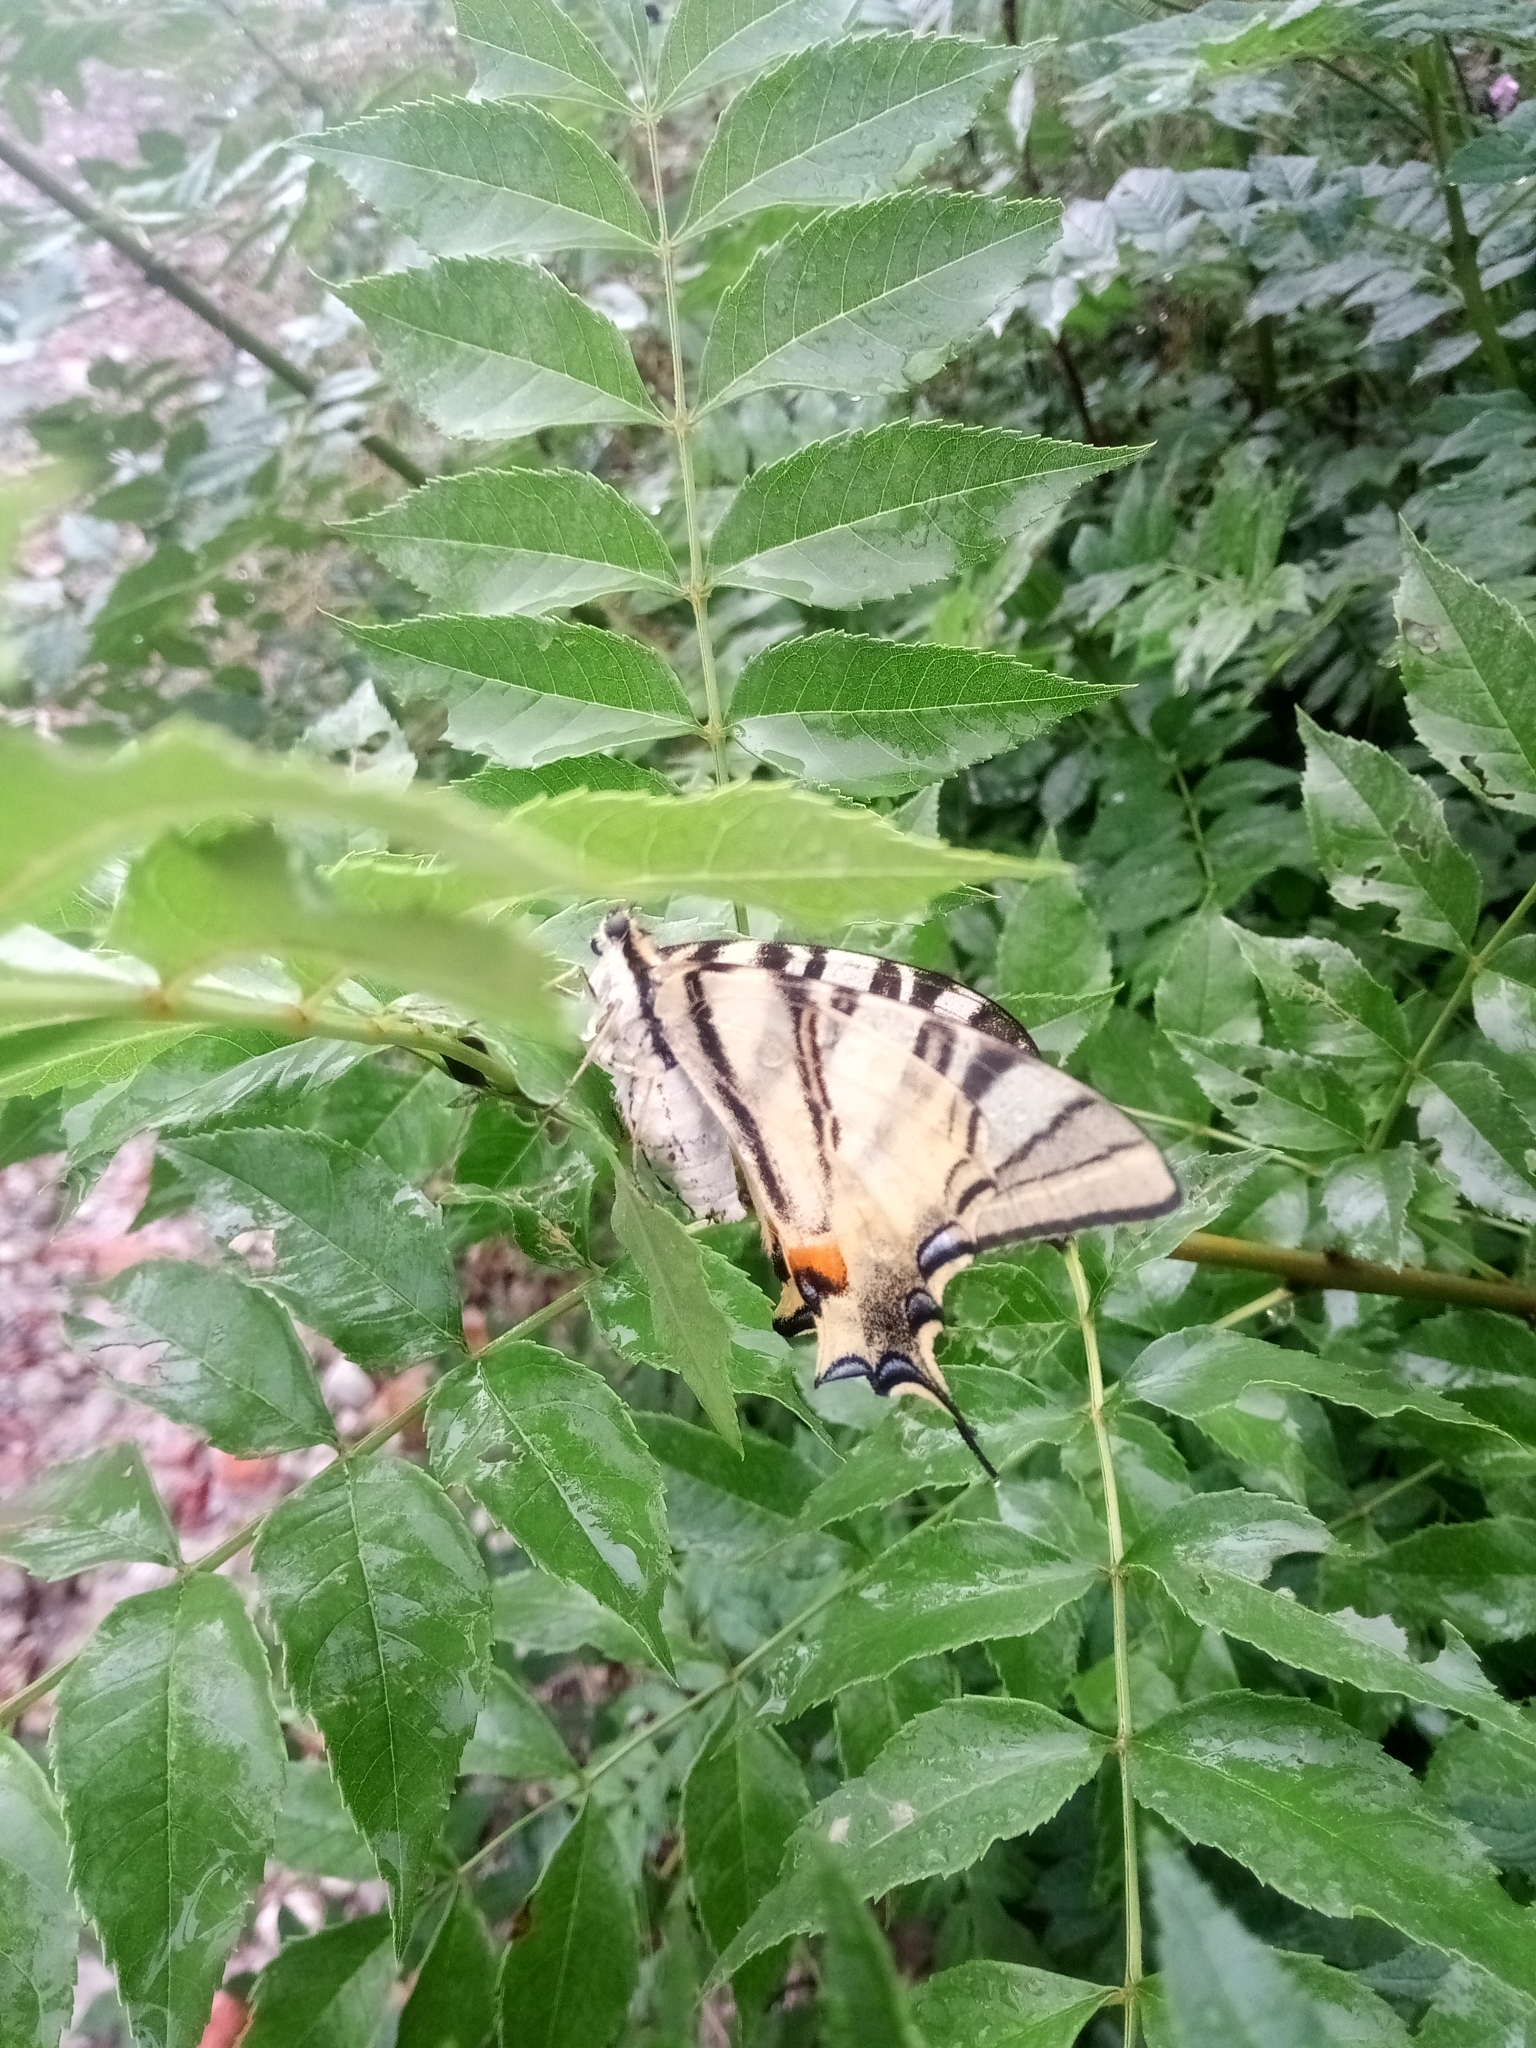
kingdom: Animalia
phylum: Arthropoda
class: Insecta
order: Lepidoptera
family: Papilionidae
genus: Iphiclides
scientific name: Iphiclides podalirius
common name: Scarce swallowtail
